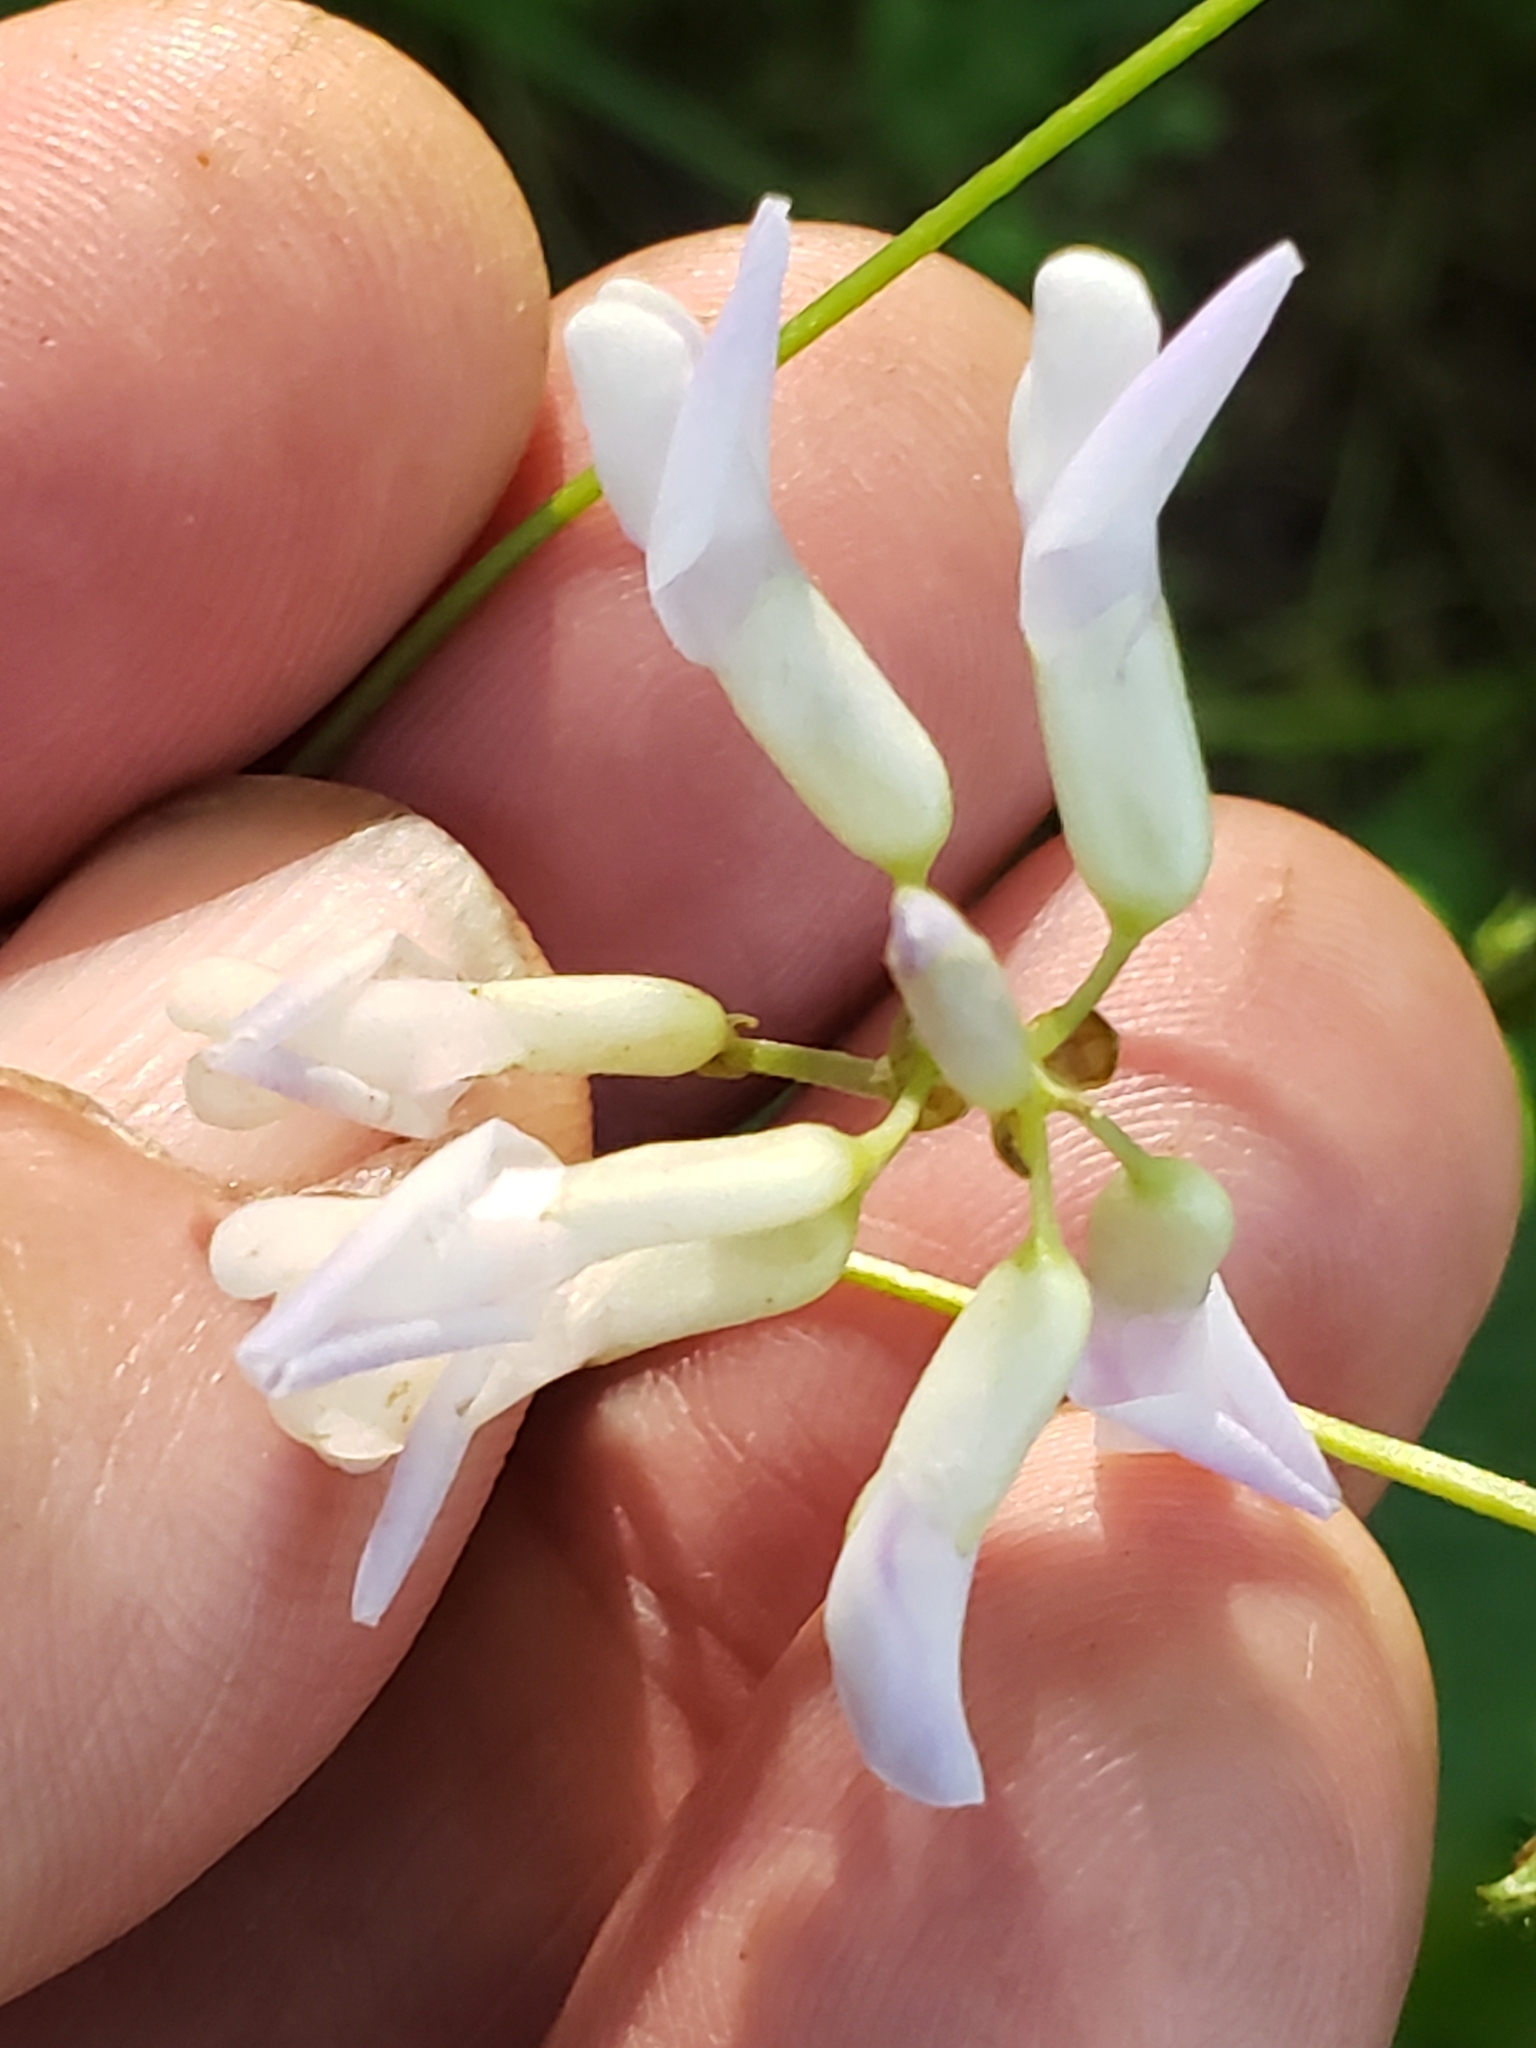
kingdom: Plantae
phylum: Tracheophyta
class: Magnoliopsida
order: Fabales
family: Fabaceae
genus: Amphicarpaea
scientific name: Amphicarpaea bracteata
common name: American hog peanut
